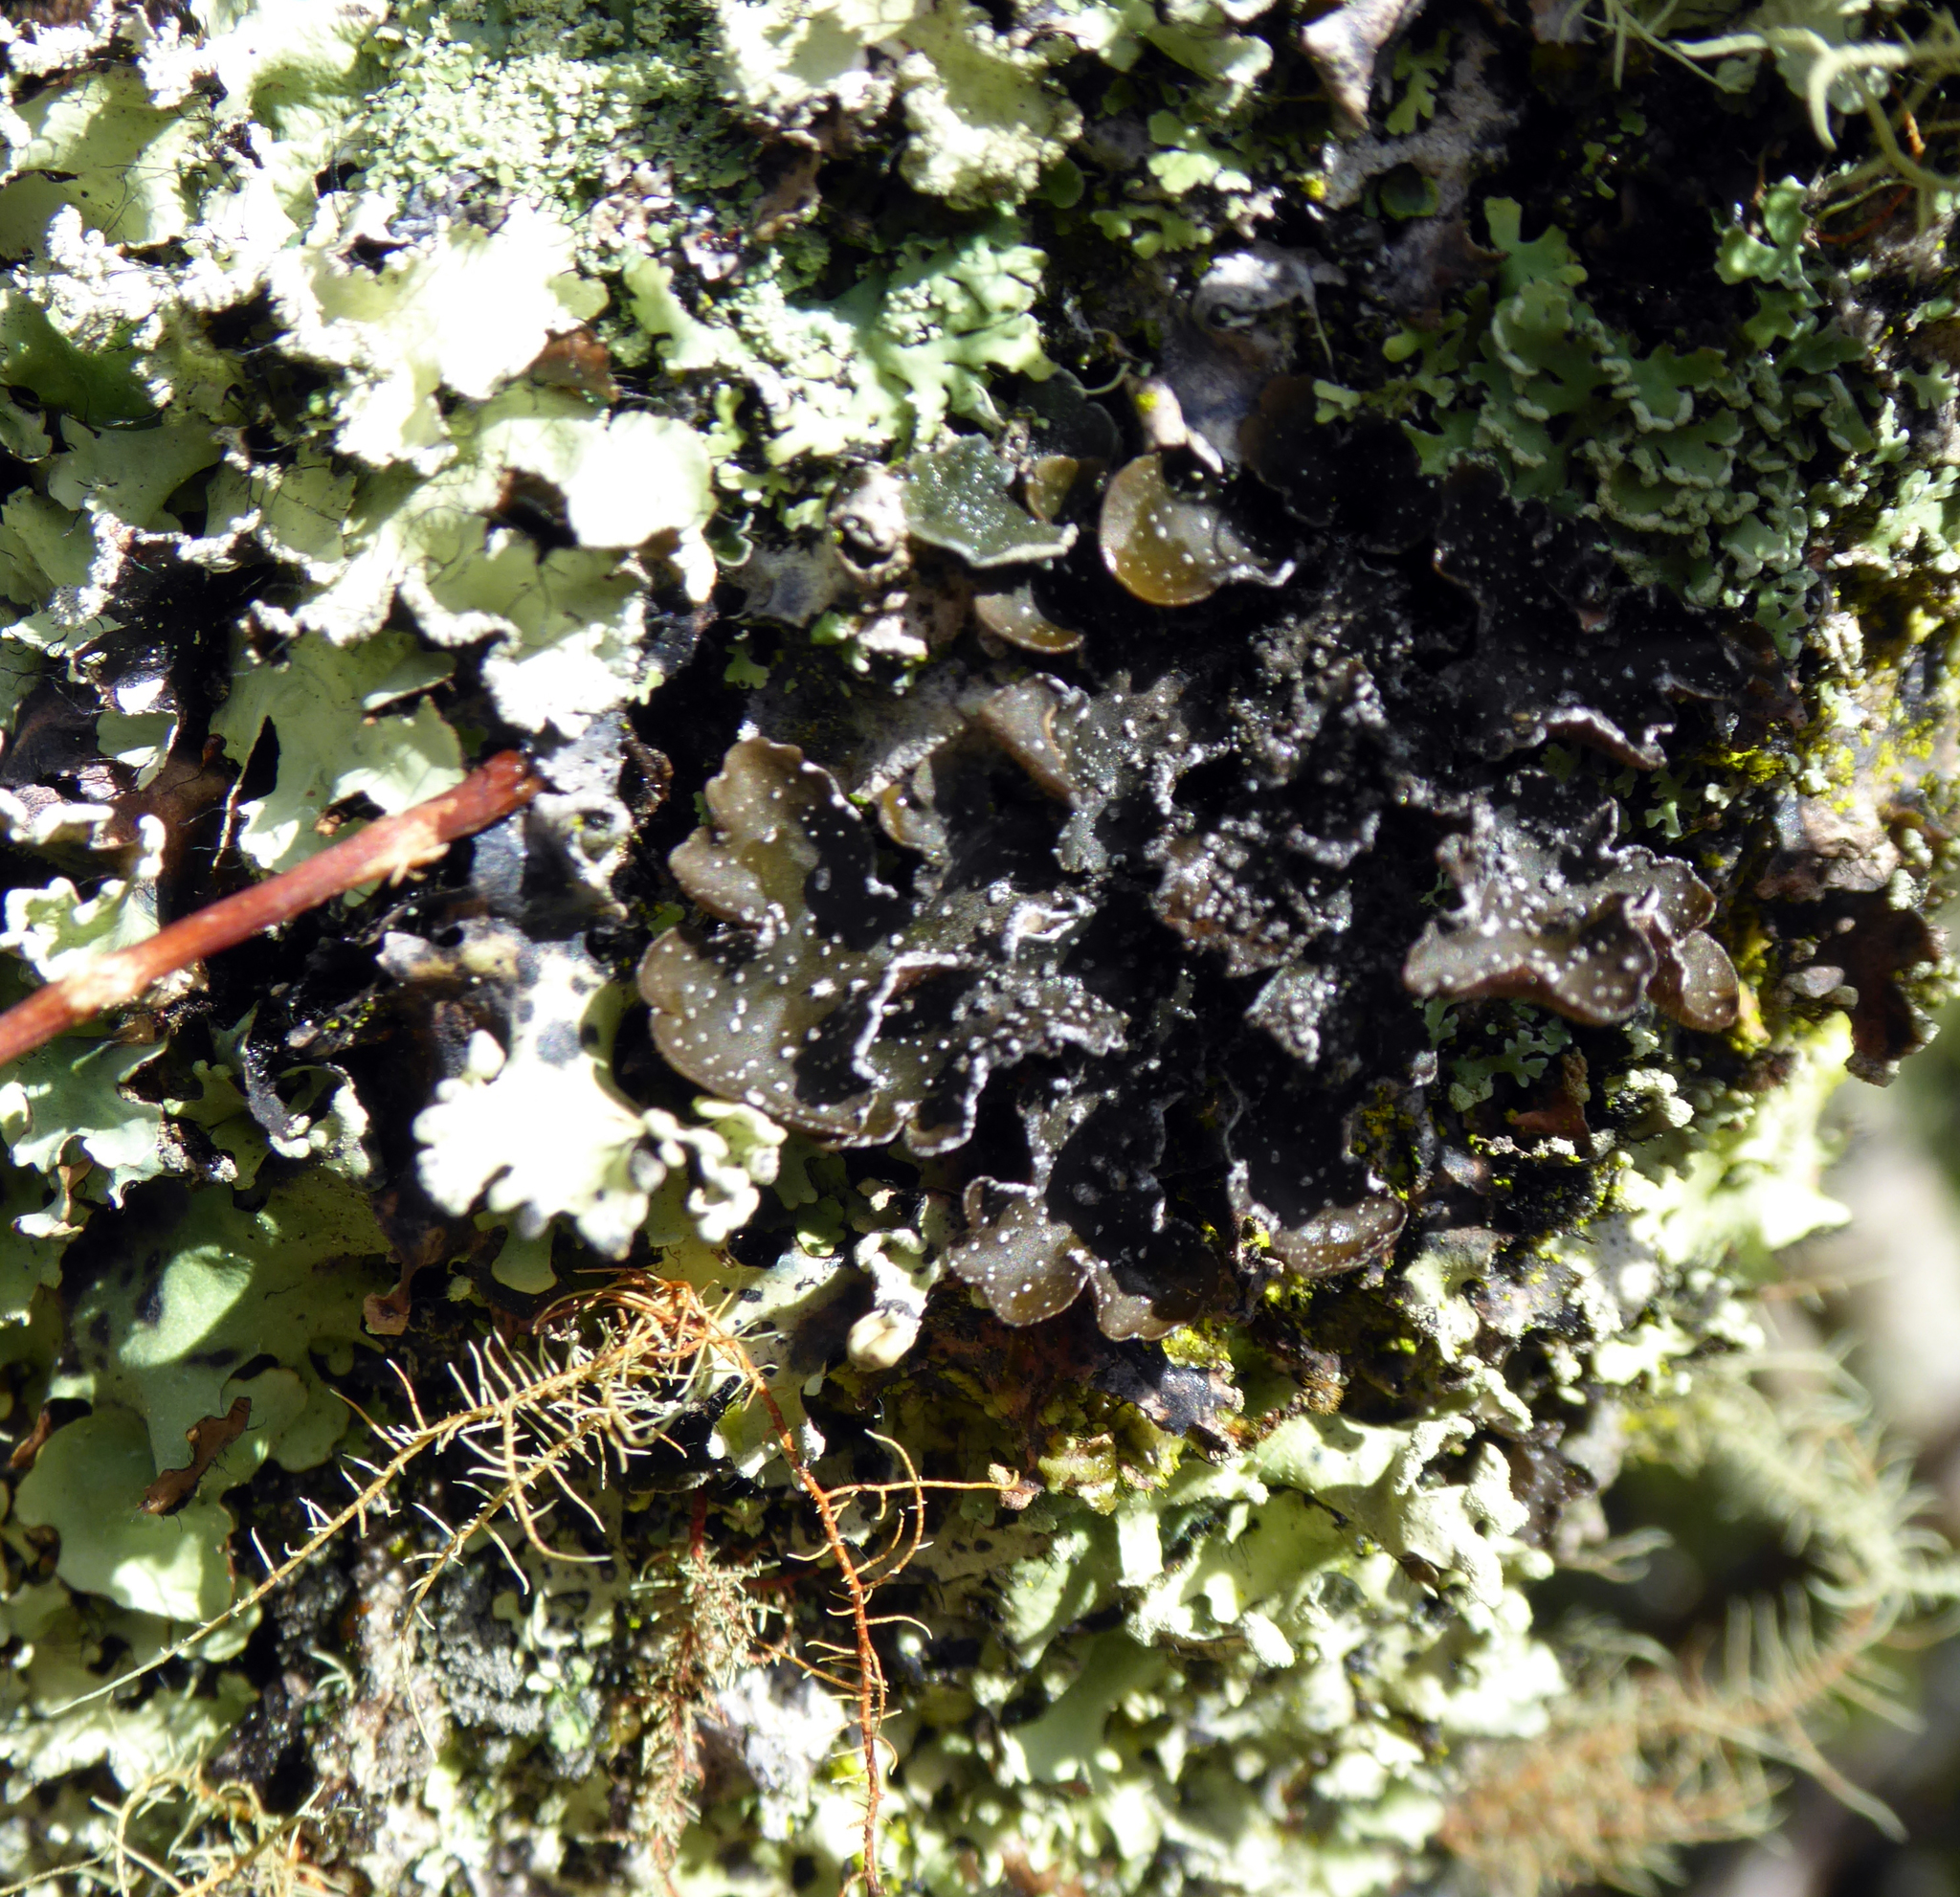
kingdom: Fungi
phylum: Ascomycota
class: Lecanoromycetes
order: Peltigerales
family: Lobariaceae
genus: Pseudocyphellaria
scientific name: Pseudocyphellaria intricata
